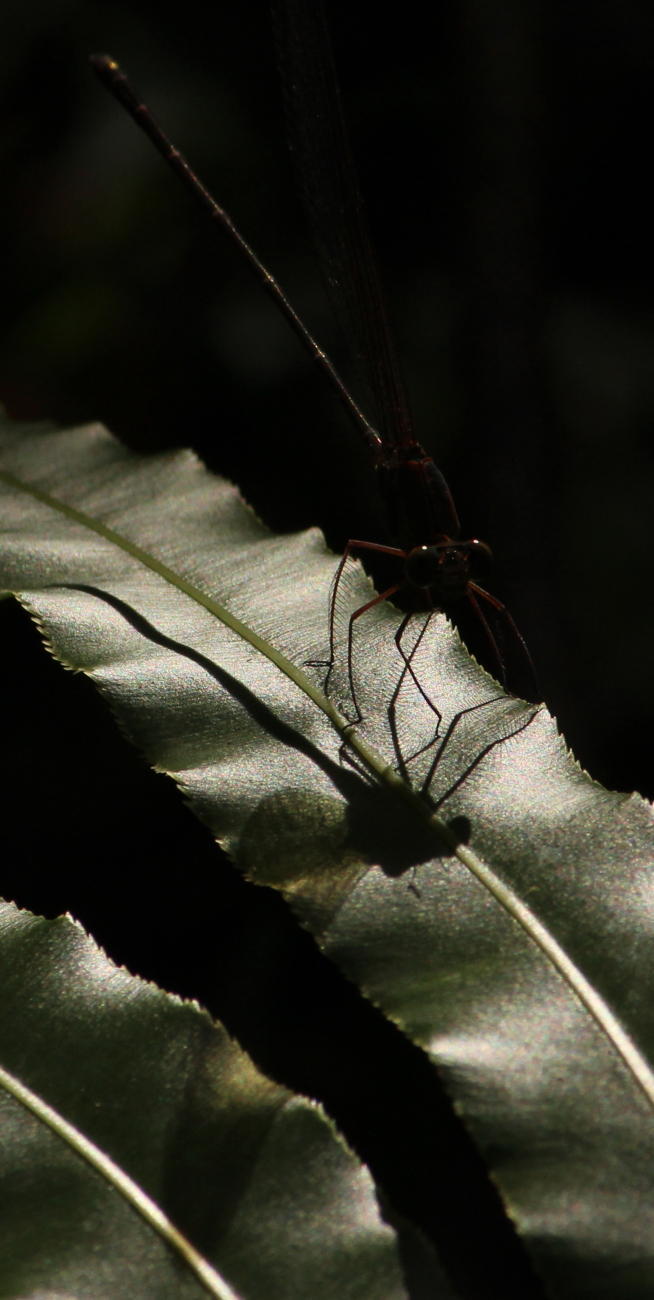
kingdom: Animalia
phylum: Arthropoda
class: Insecta
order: Odonata
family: Calopterygidae
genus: Phaon
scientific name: Phaon iridipennis
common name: Glistening demoiselle
